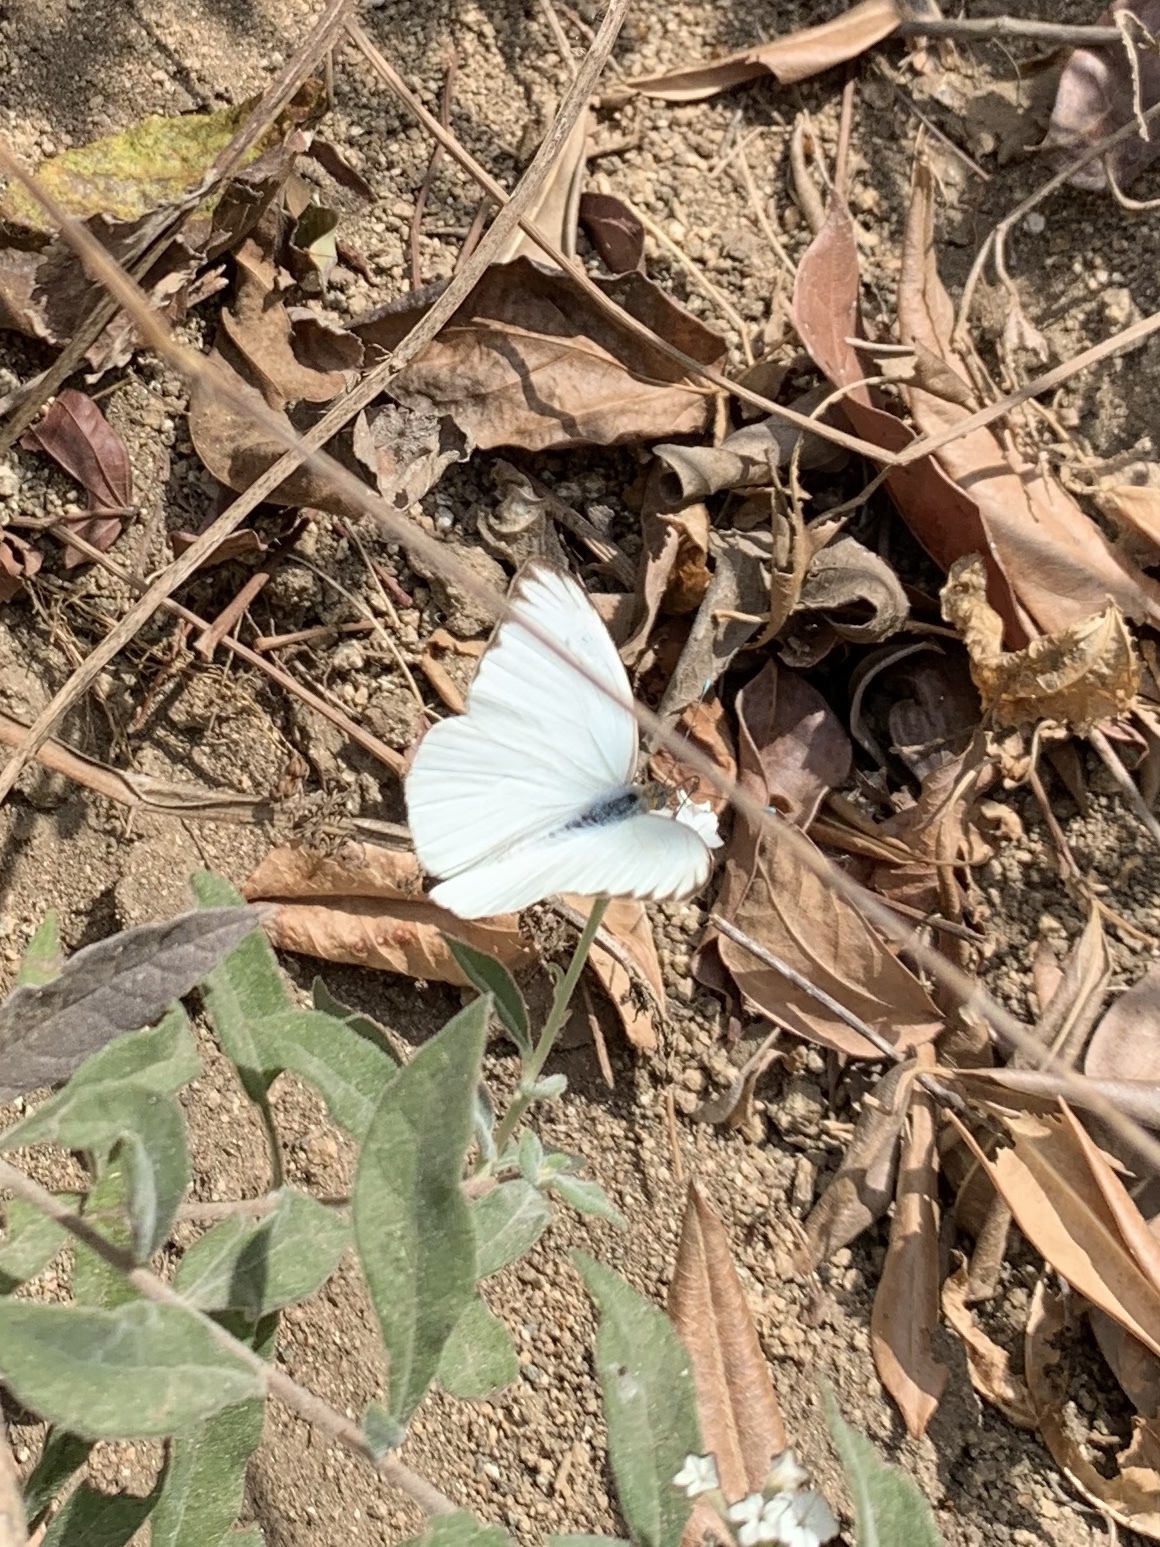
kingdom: Animalia
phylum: Arthropoda
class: Insecta
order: Lepidoptera
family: Pieridae
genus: Ascia
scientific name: Ascia monuste
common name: Great southern white
